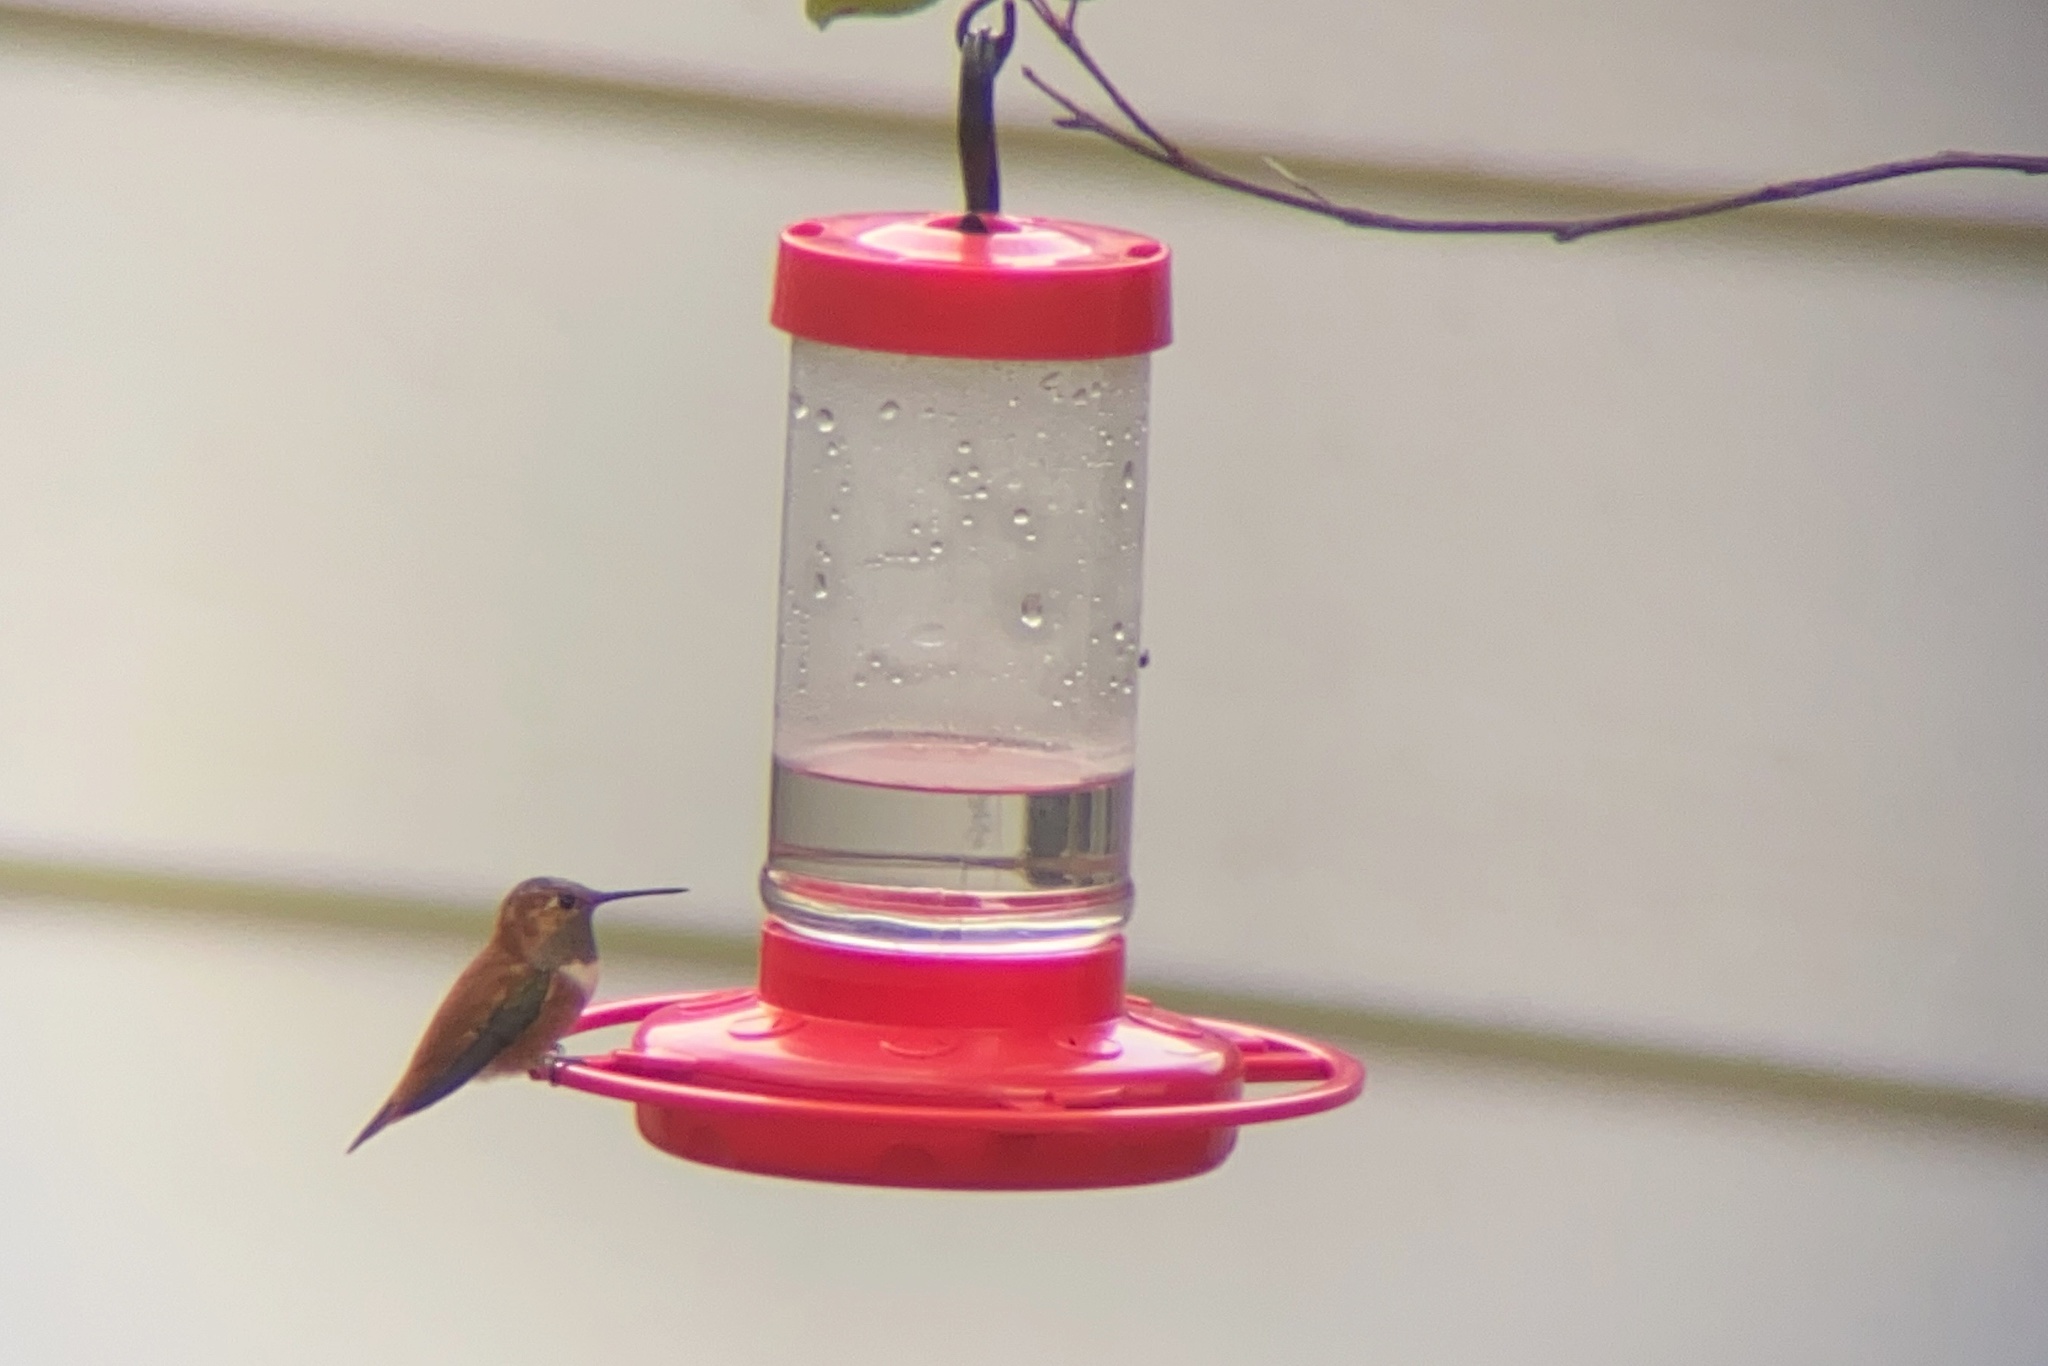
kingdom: Animalia
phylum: Chordata
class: Aves
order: Apodiformes
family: Trochilidae
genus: Selasphorus
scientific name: Selasphorus rufus
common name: Rufous hummingbird
